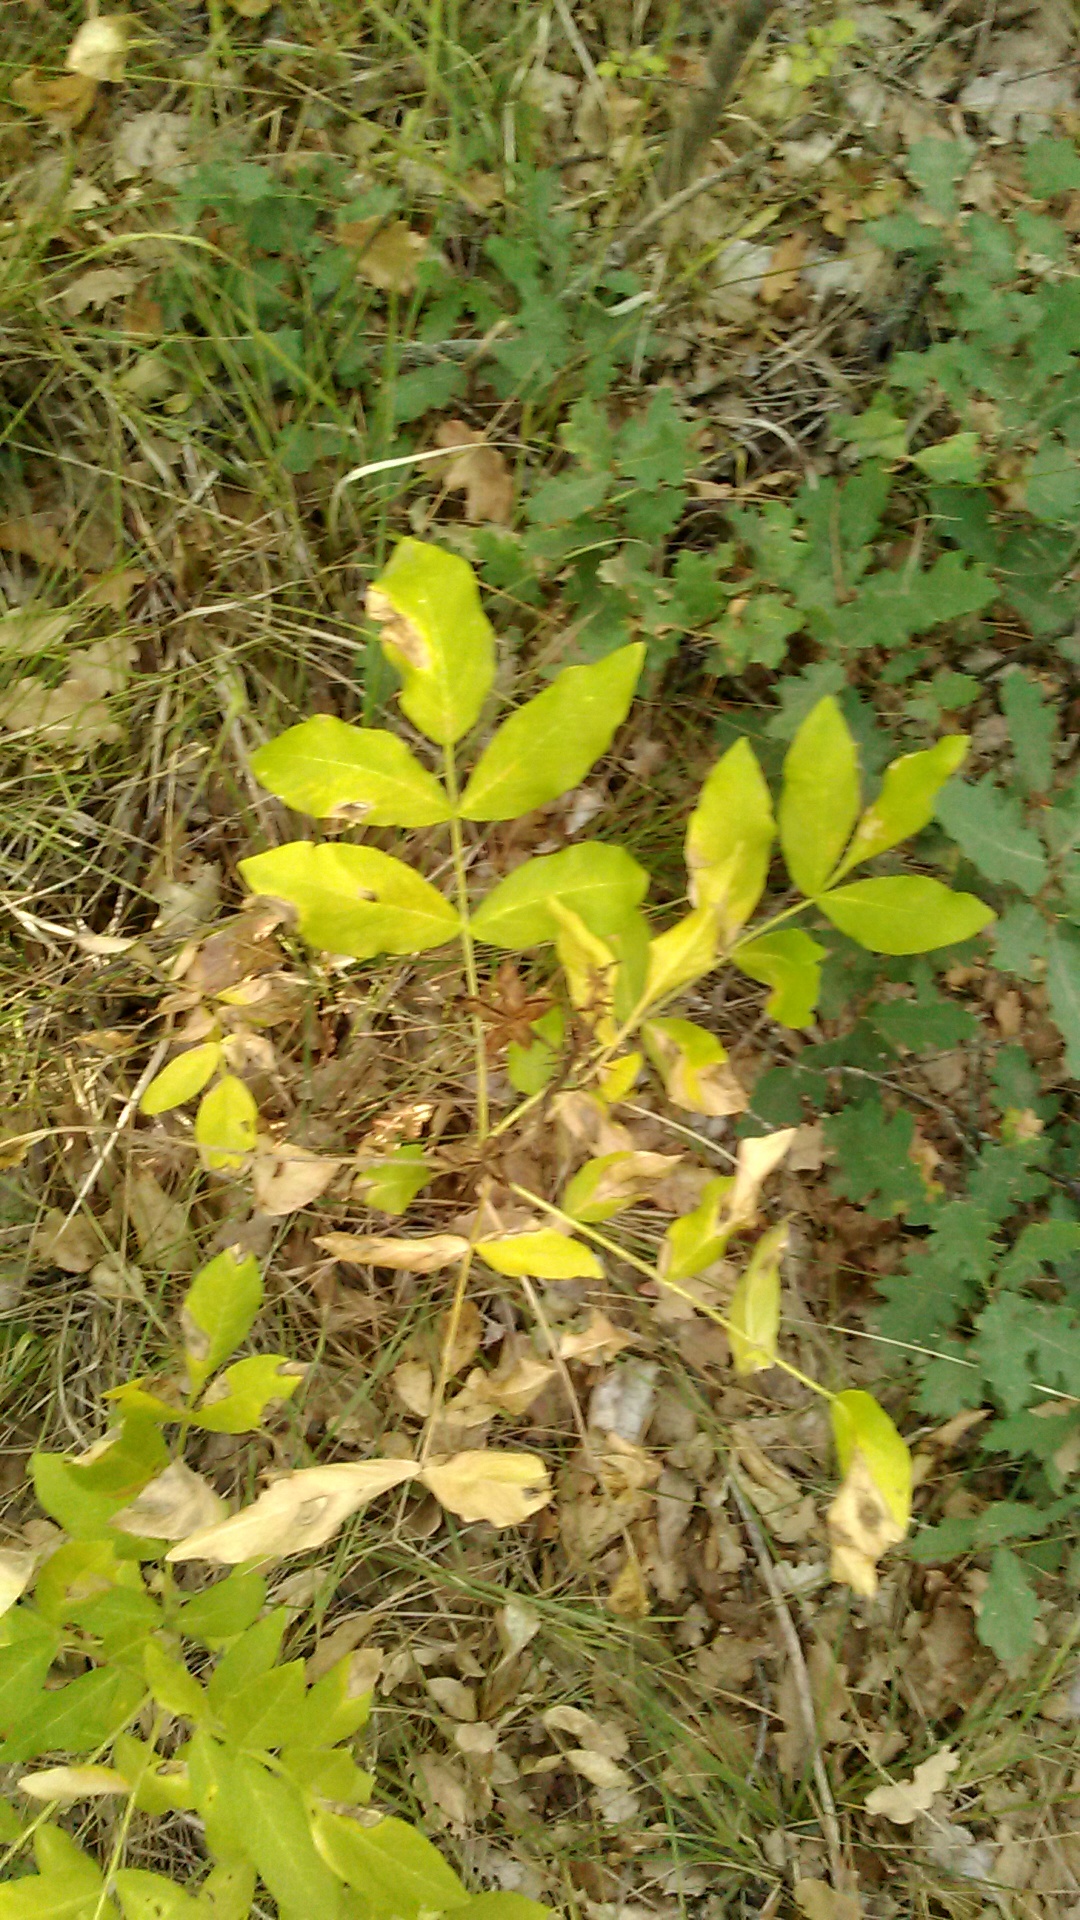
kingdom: Plantae
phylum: Tracheophyta
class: Magnoliopsida
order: Sapindales
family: Rutaceae
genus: Dictamnus
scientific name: Dictamnus albus
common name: Gasplant
